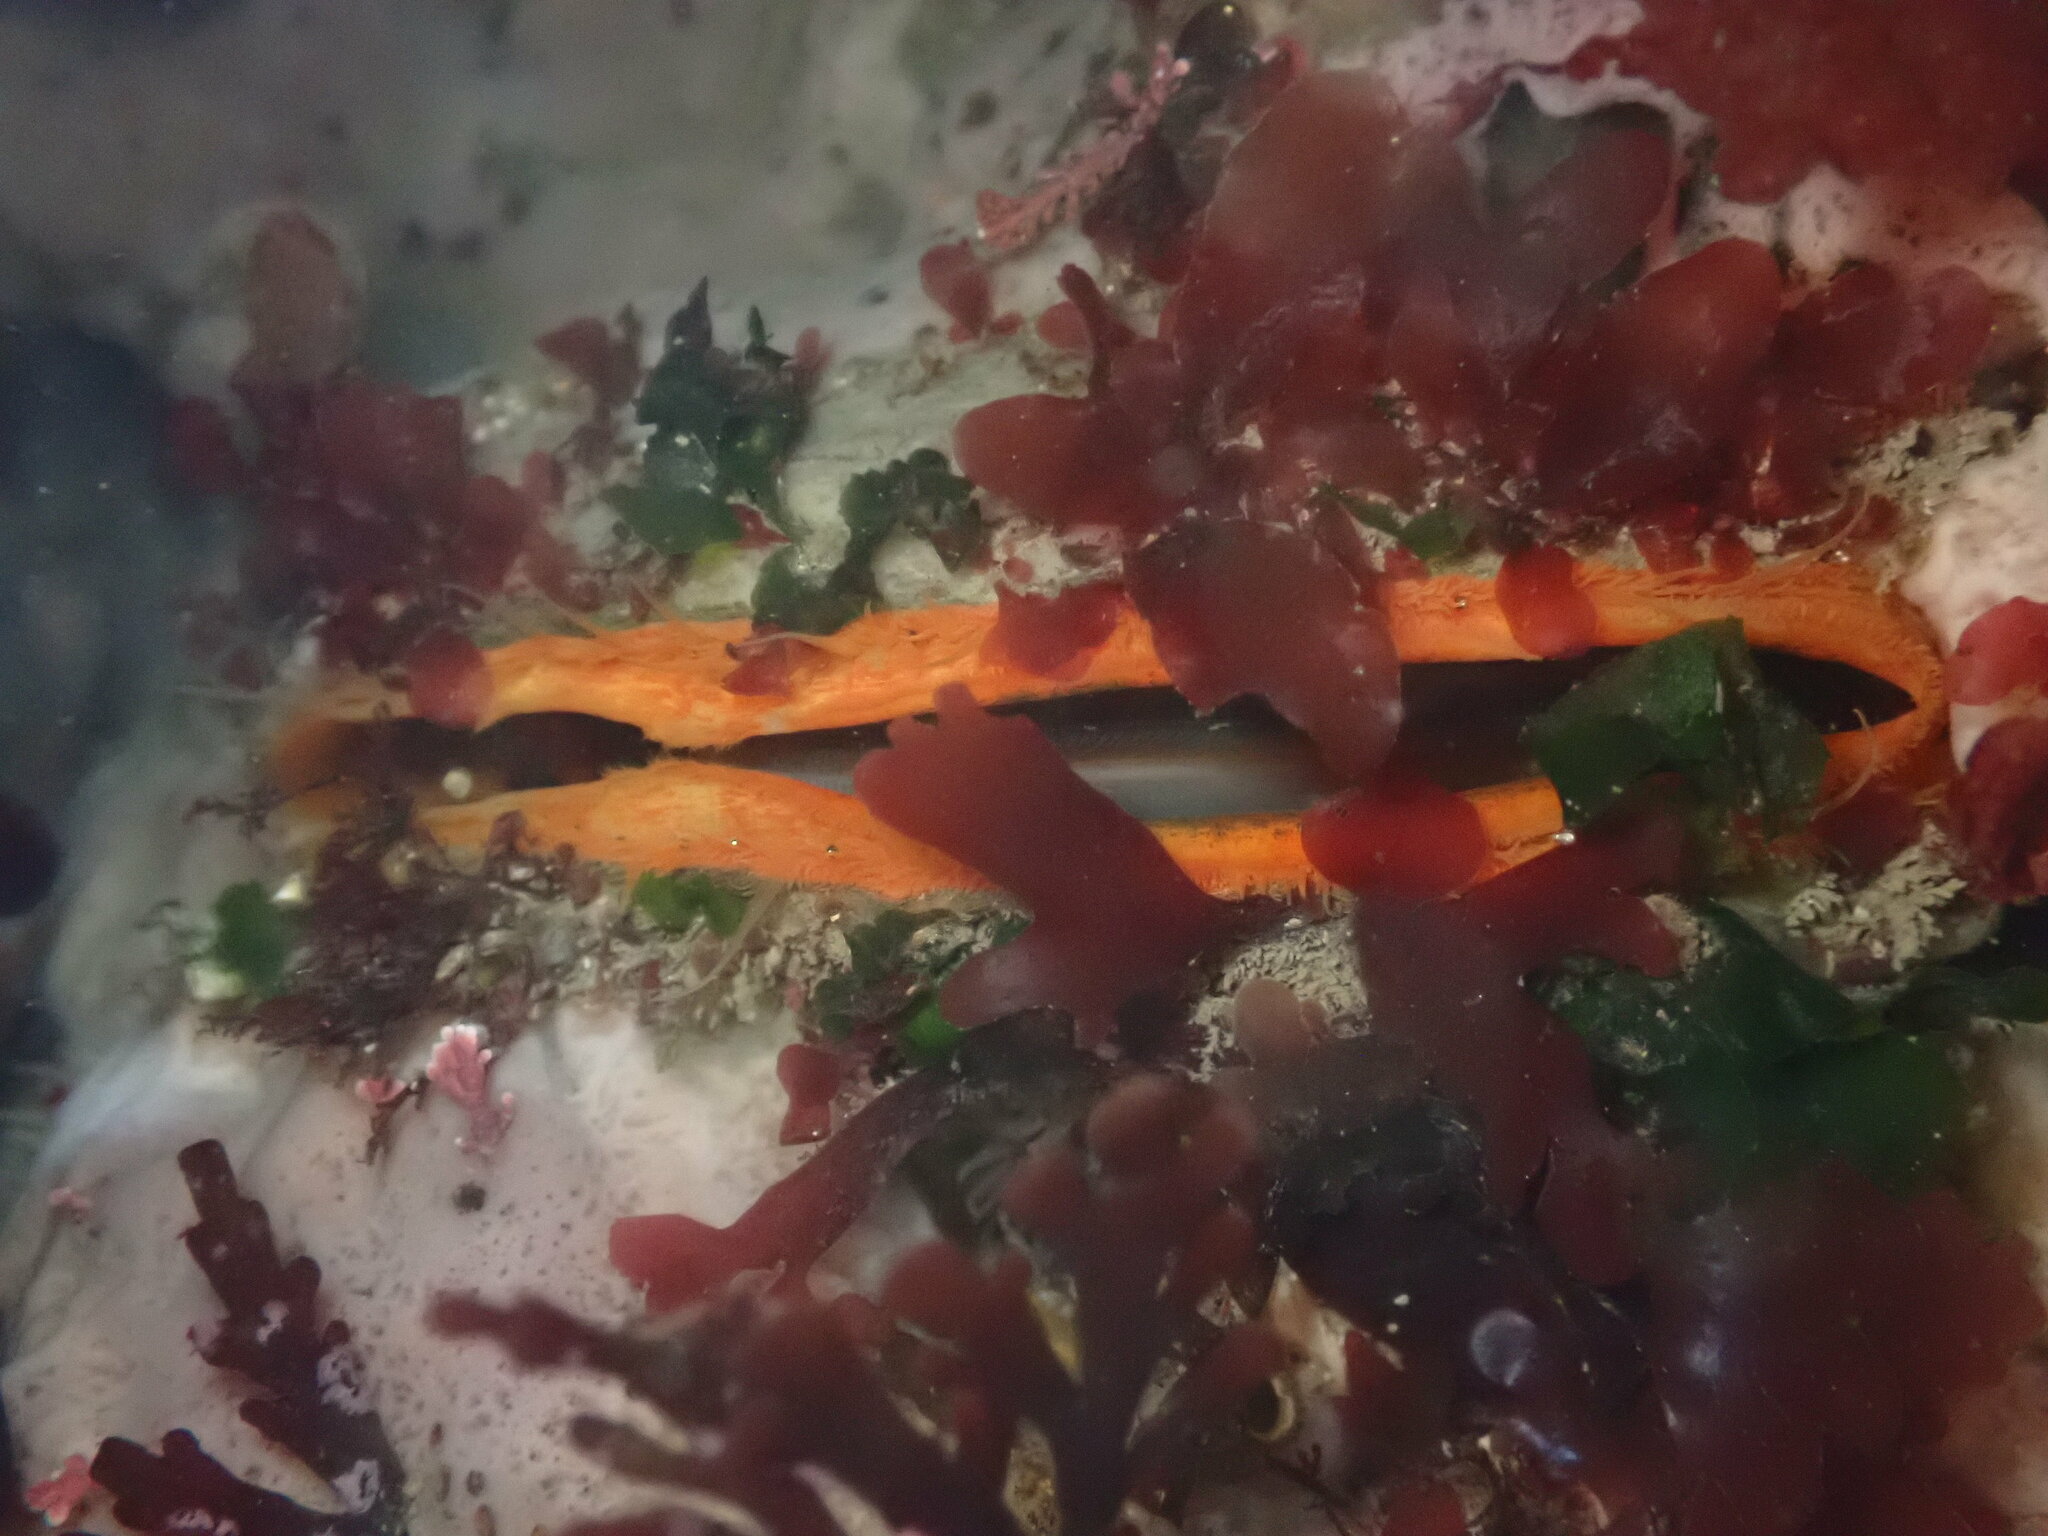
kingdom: Animalia
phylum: Mollusca
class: Bivalvia
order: Pectinida
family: Pectinidae
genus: Crassadoma
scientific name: Crassadoma gigantea
